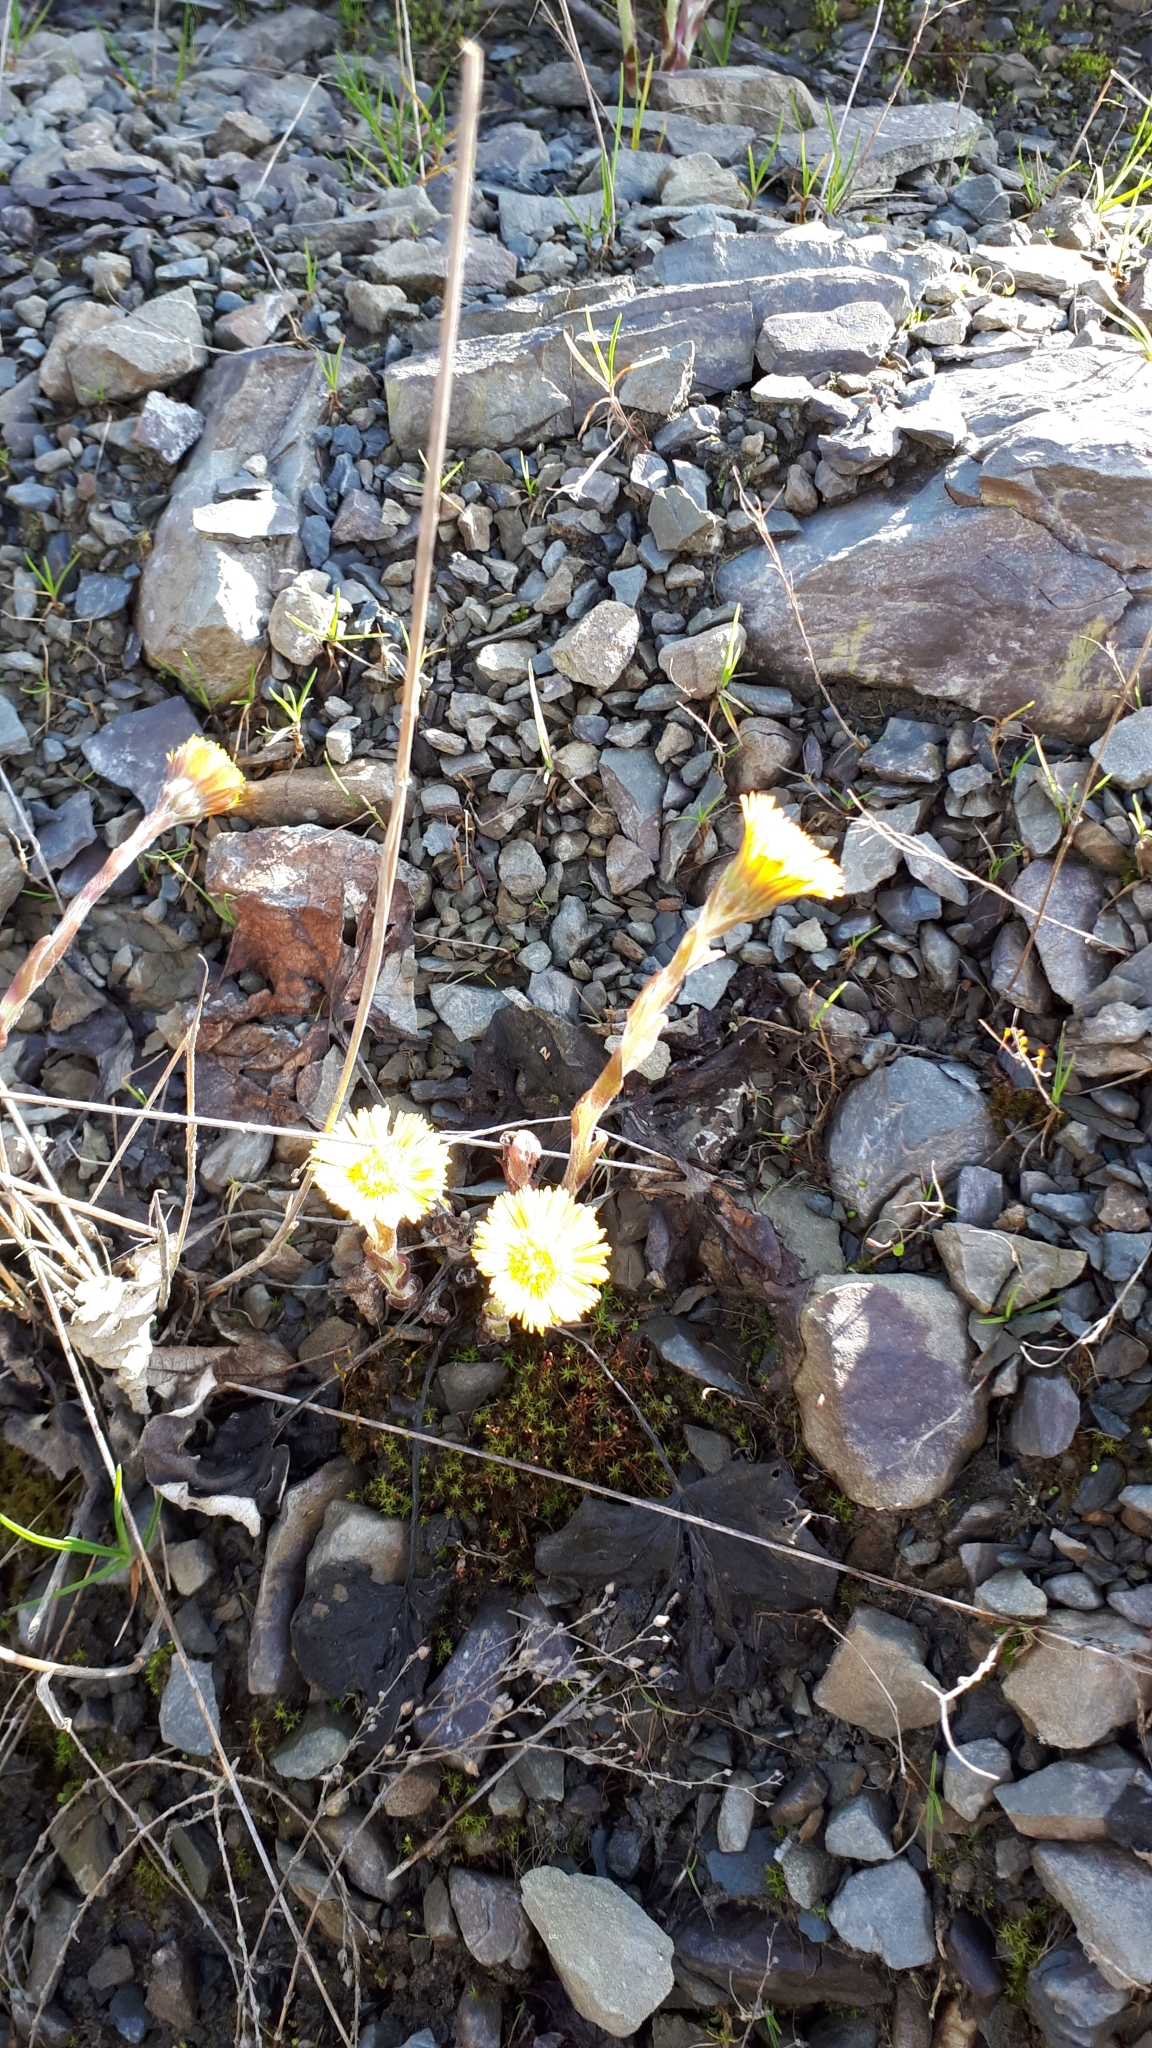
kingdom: Plantae
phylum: Tracheophyta
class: Magnoliopsida
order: Asterales
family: Asteraceae
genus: Tussilago
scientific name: Tussilago farfara
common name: Coltsfoot
